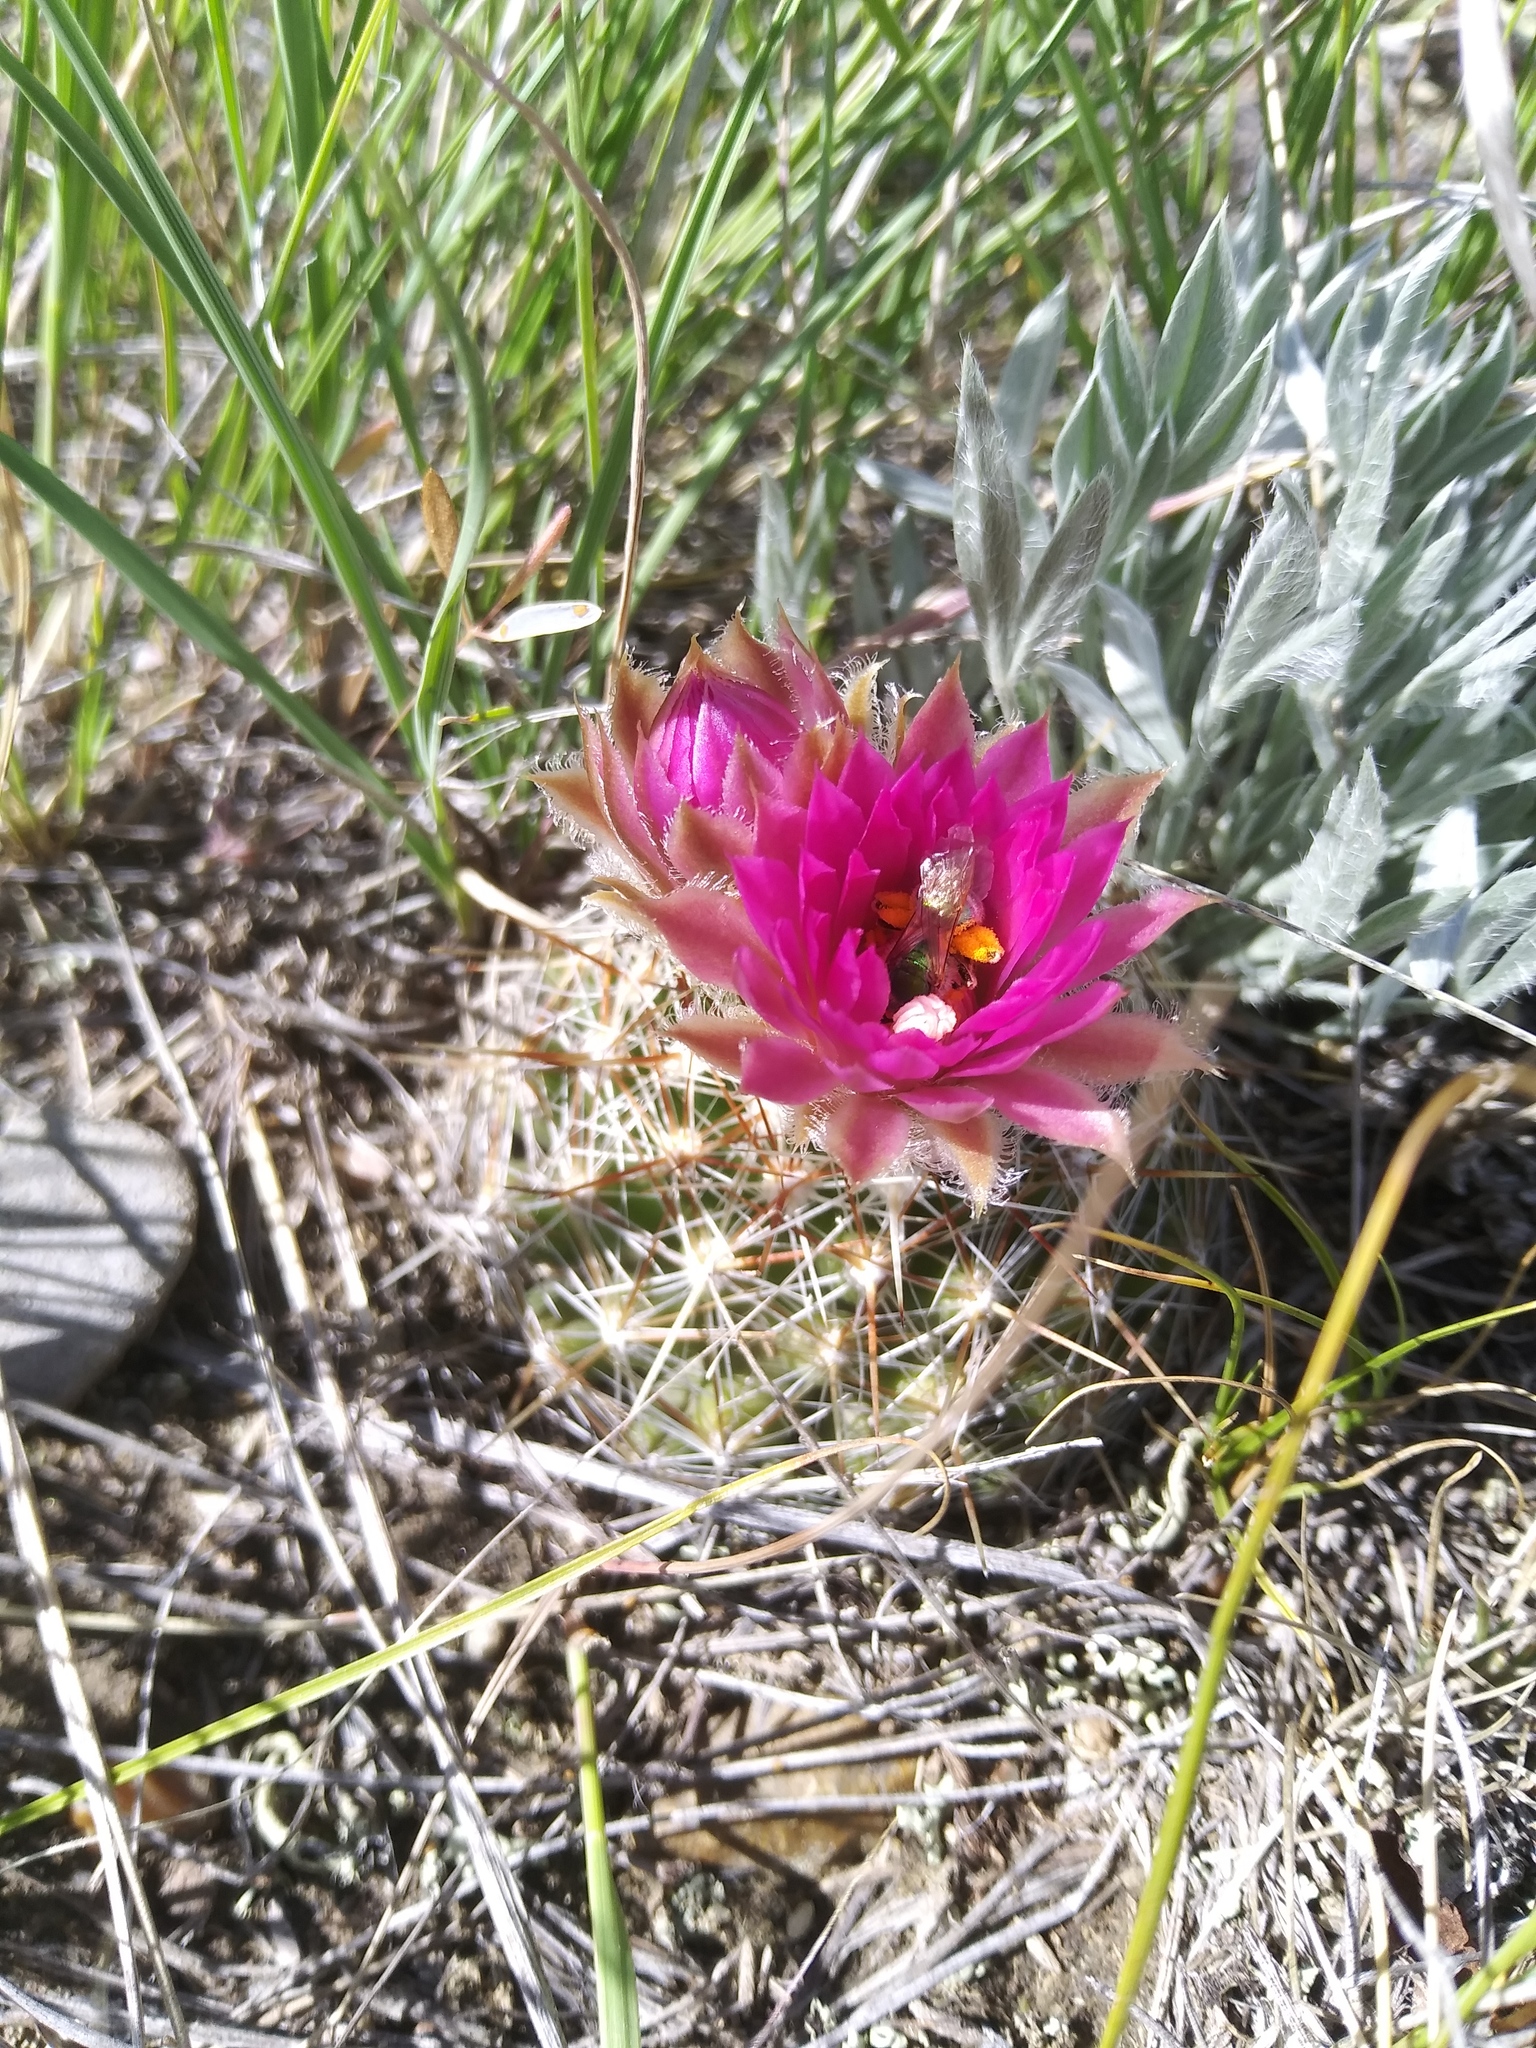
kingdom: Plantae
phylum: Tracheophyta
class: Magnoliopsida
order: Caryophyllales
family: Cactaceae
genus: Pelecyphora
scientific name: Pelecyphora vivipara
